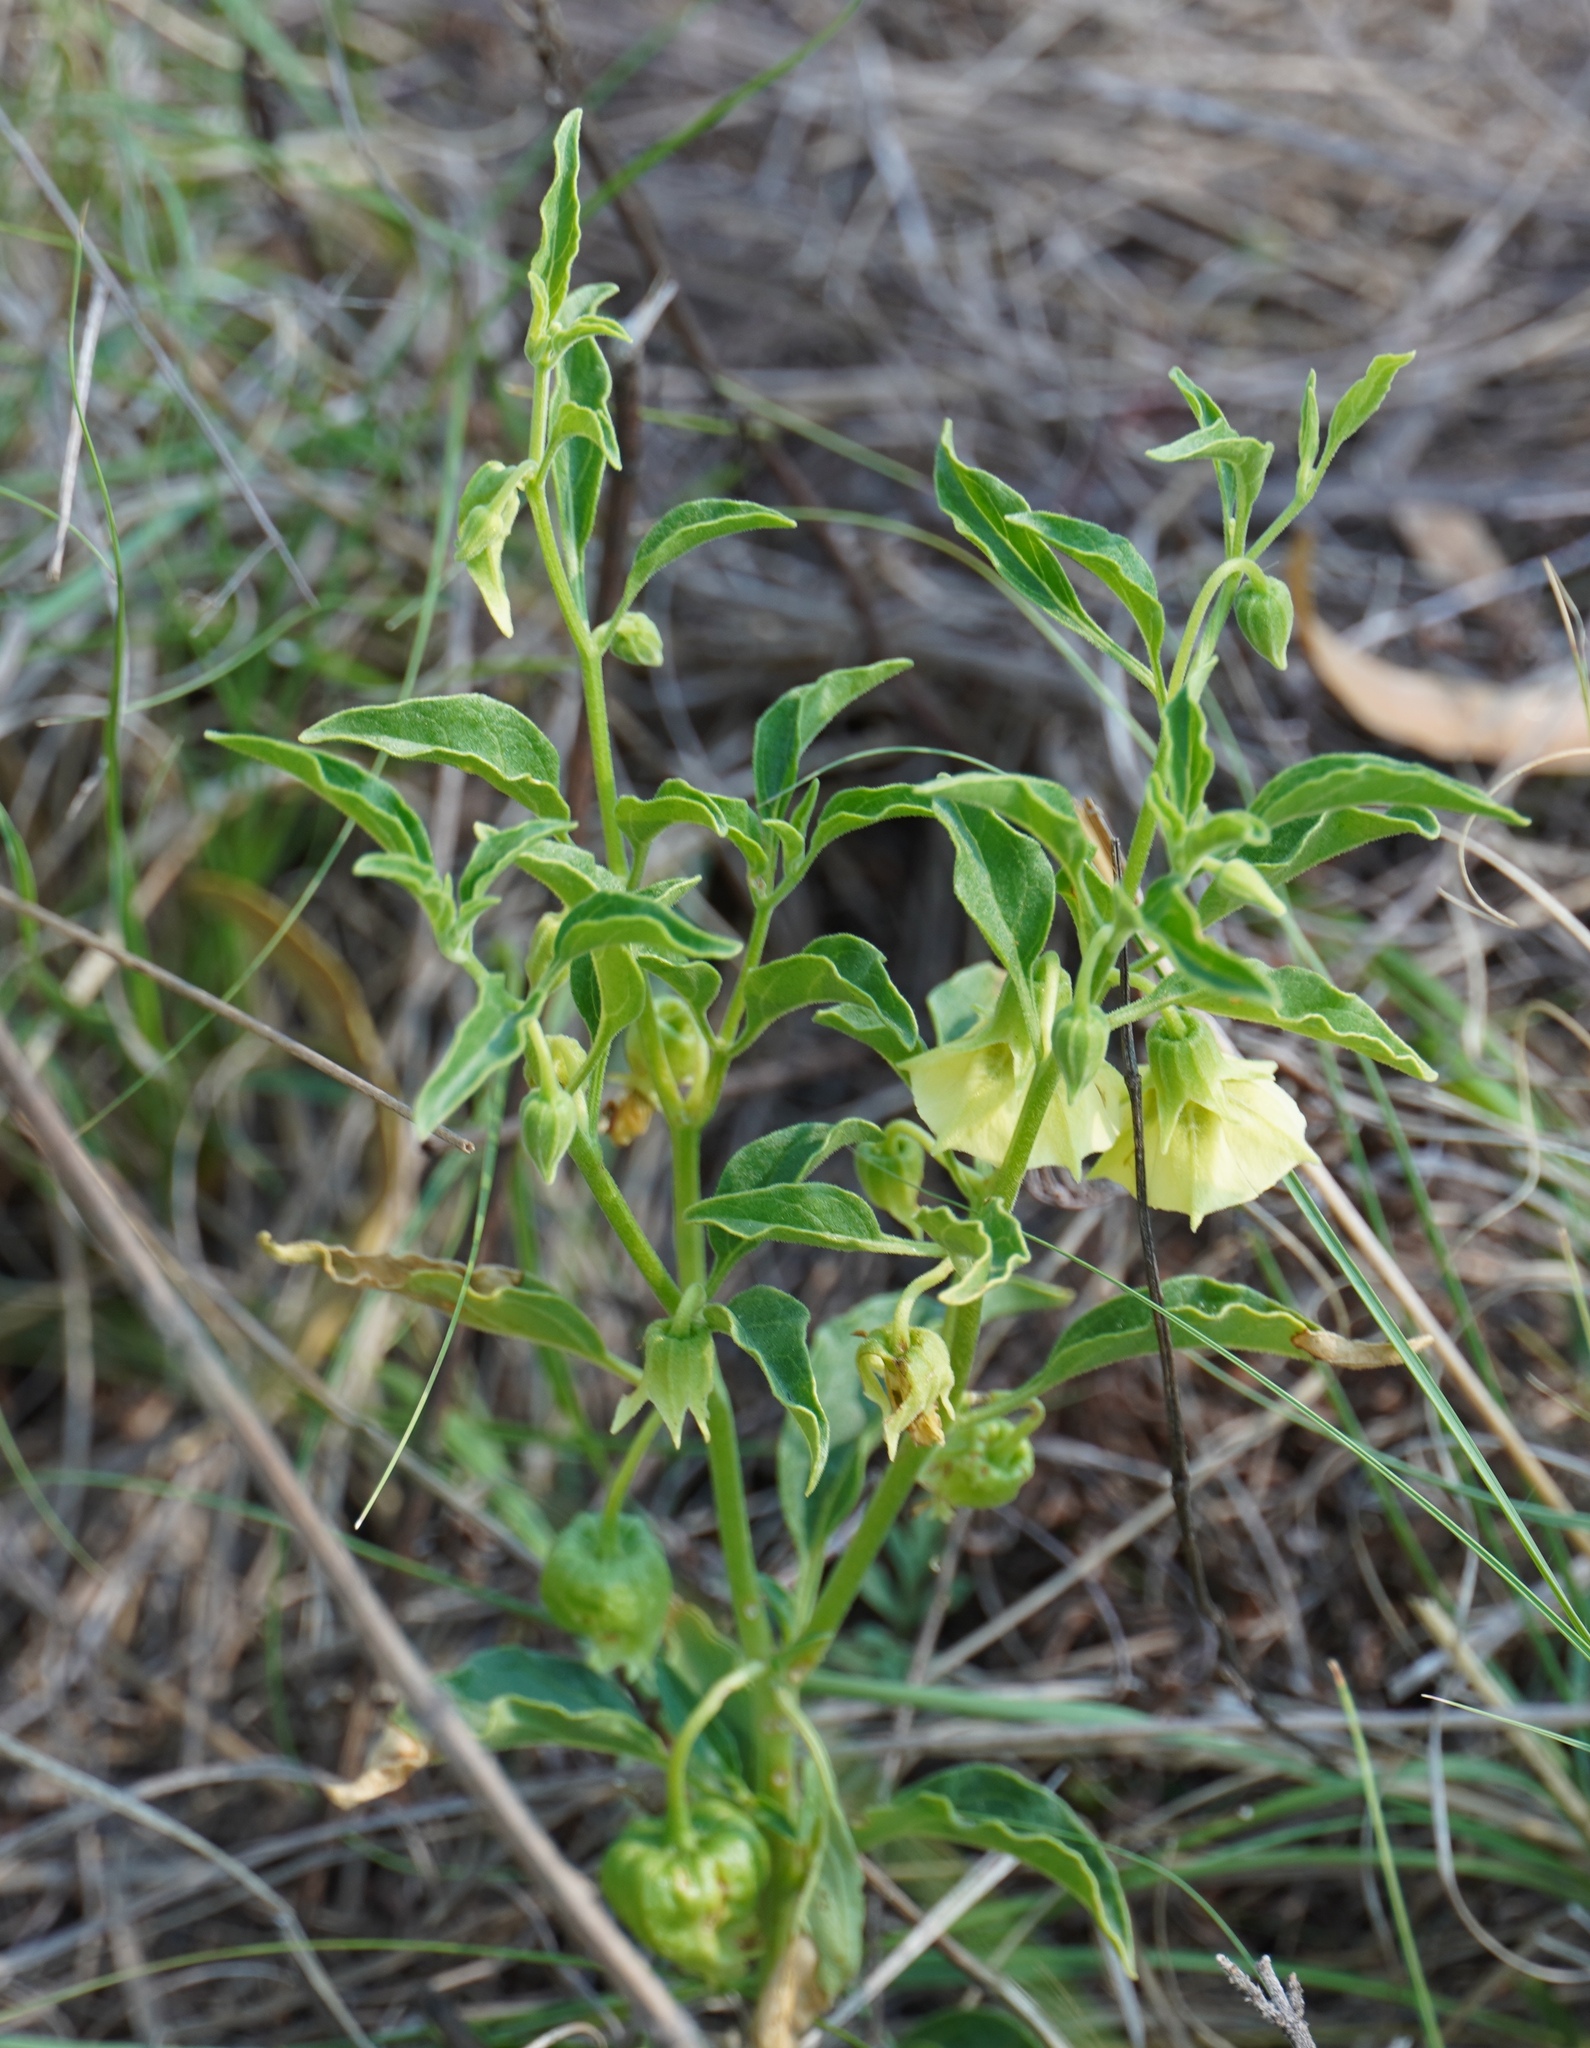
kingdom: Plantae
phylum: Tracheophyta
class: Magnoliopsida
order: Solanales
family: Solanaceae
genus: Physalis
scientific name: Physalis viscosa
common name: Stellate ground-cherry
